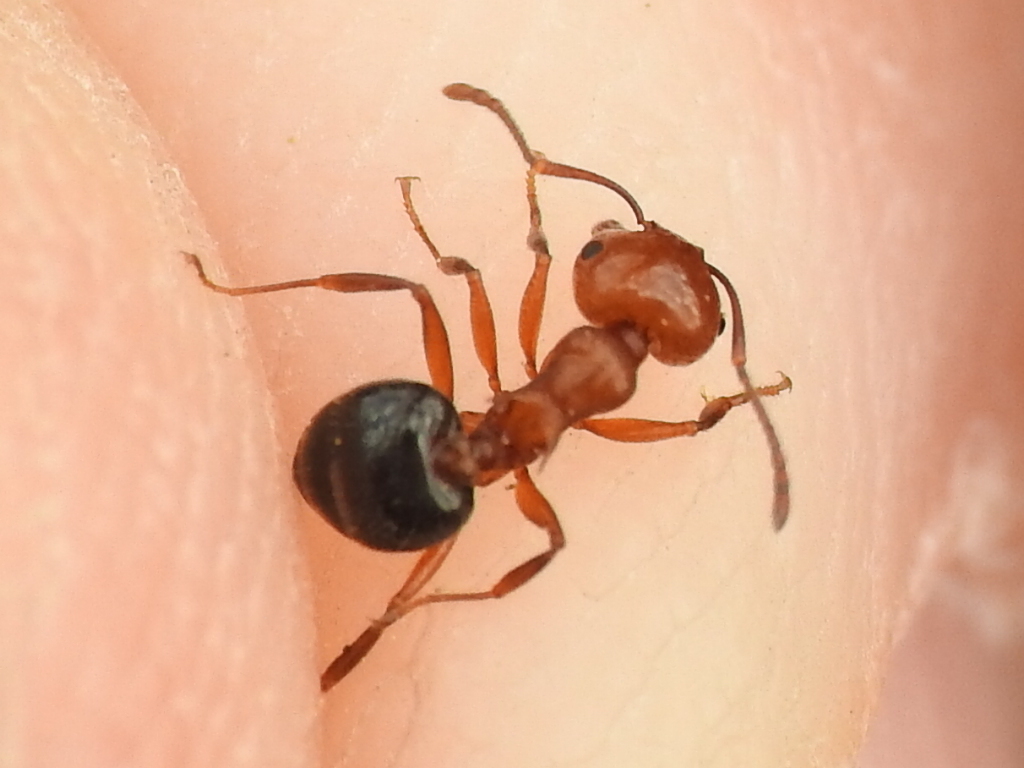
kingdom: Animalia
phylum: Arthropoda
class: Insecta
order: Hymenoptera
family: Formicidae
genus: Crematogaster
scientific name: Crematogaster laeviuscula
